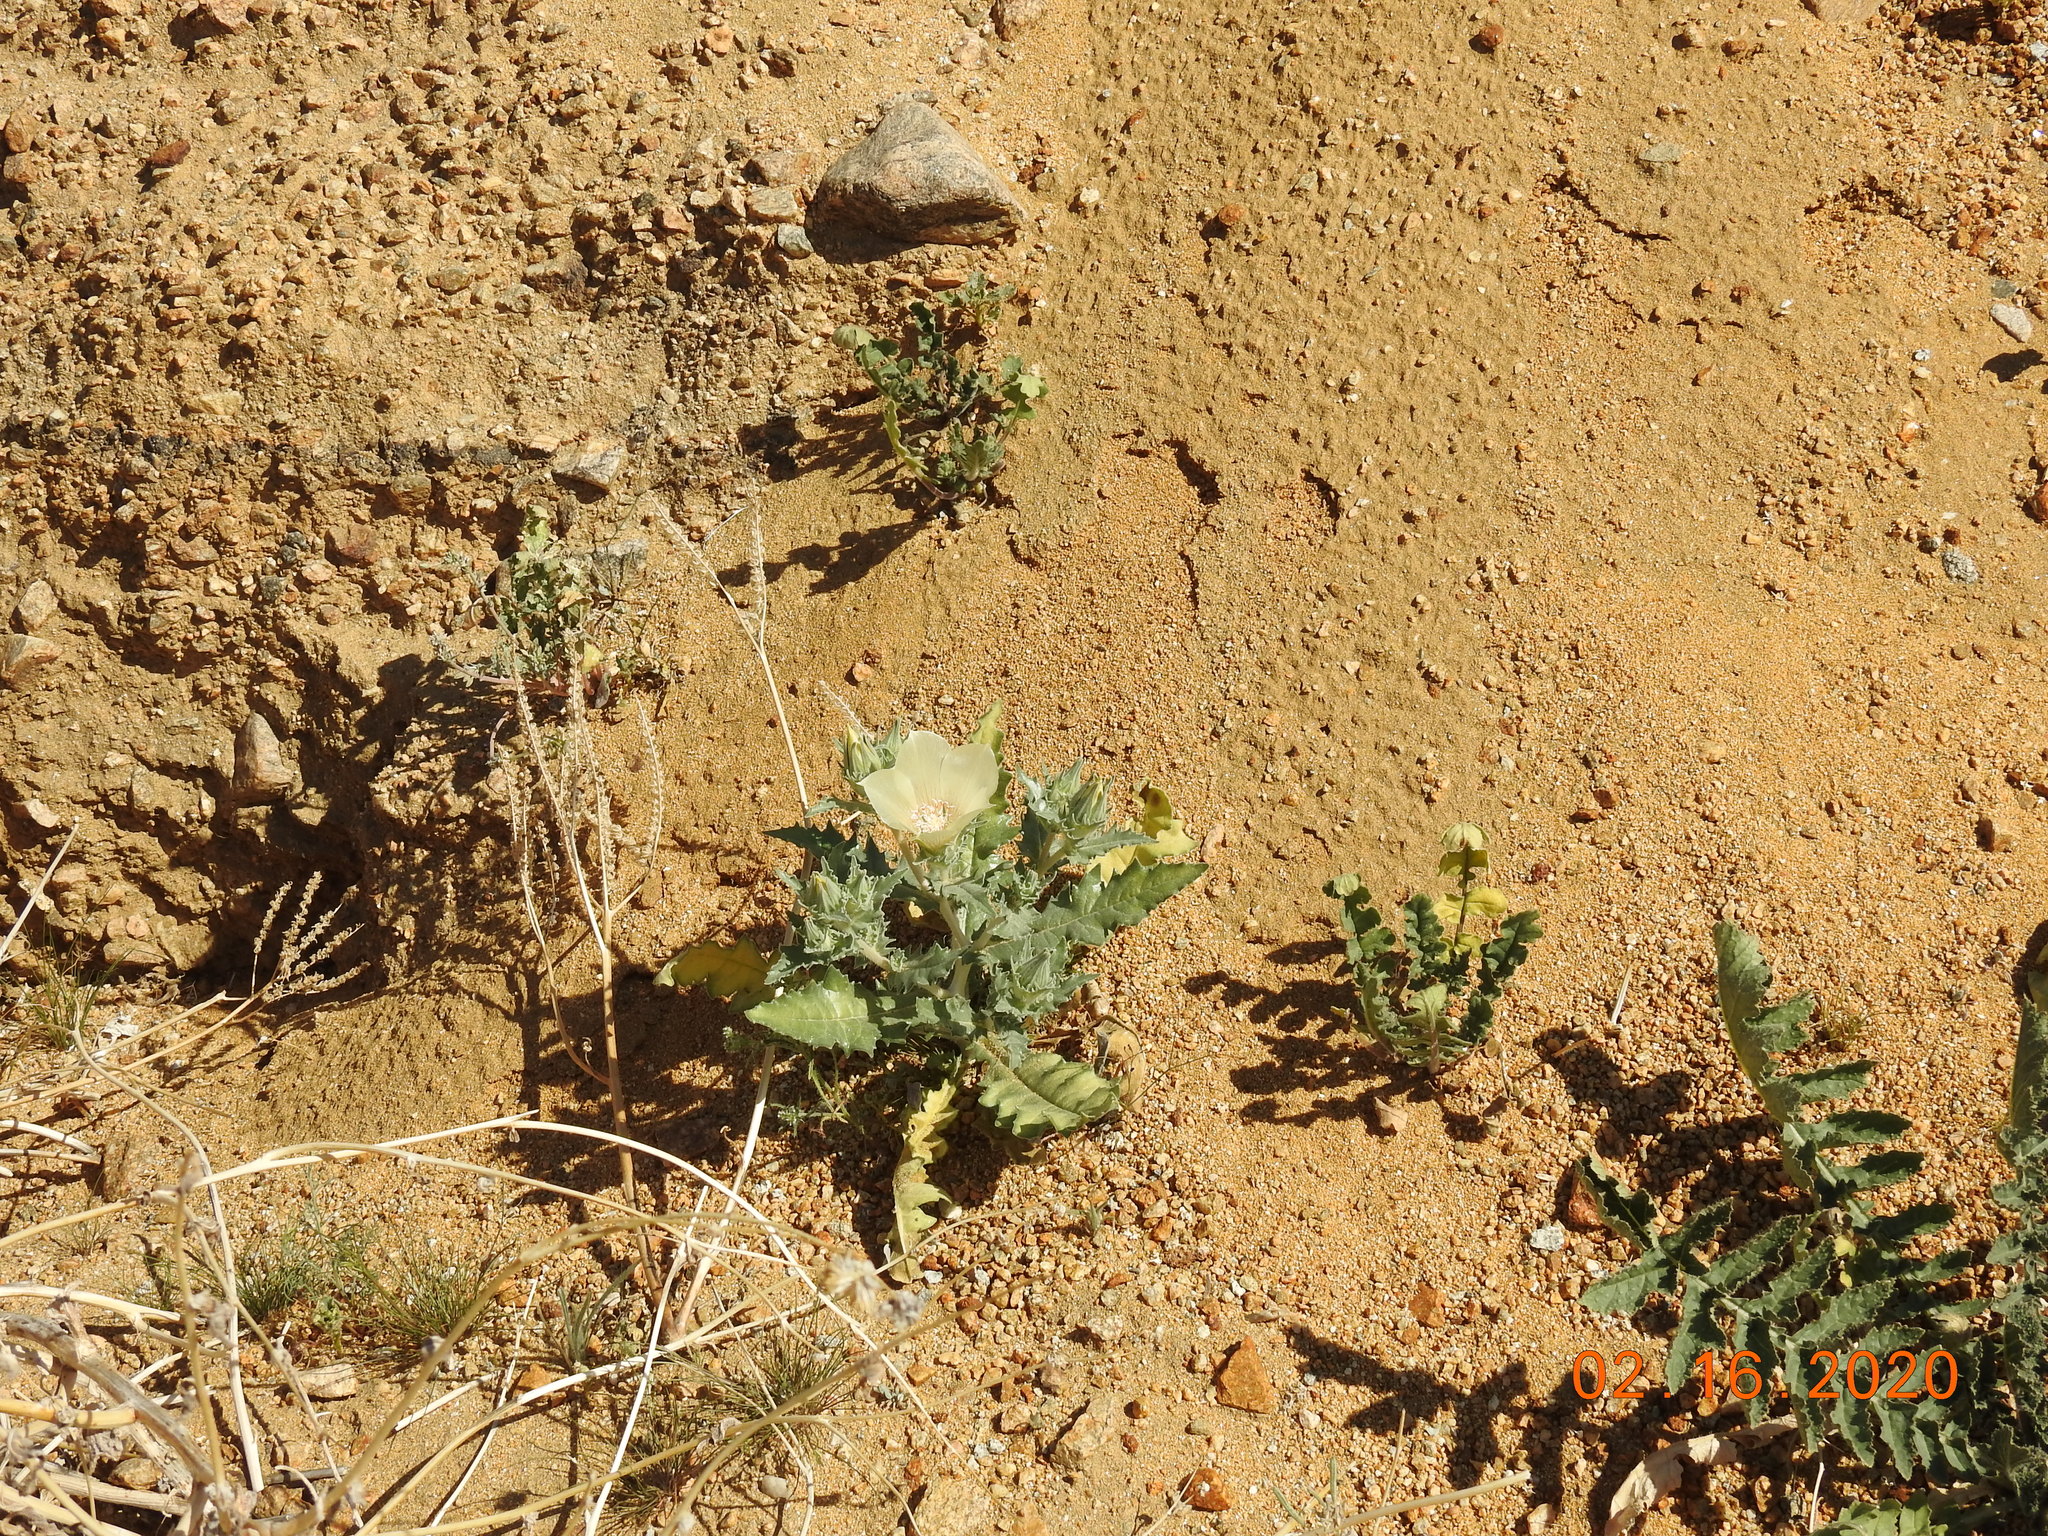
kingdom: Plantae
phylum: Tracheophyta
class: Magnoliopsida
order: Cornales
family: Loasaceae
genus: Mentzelia
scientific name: Mentzelia involucrata
